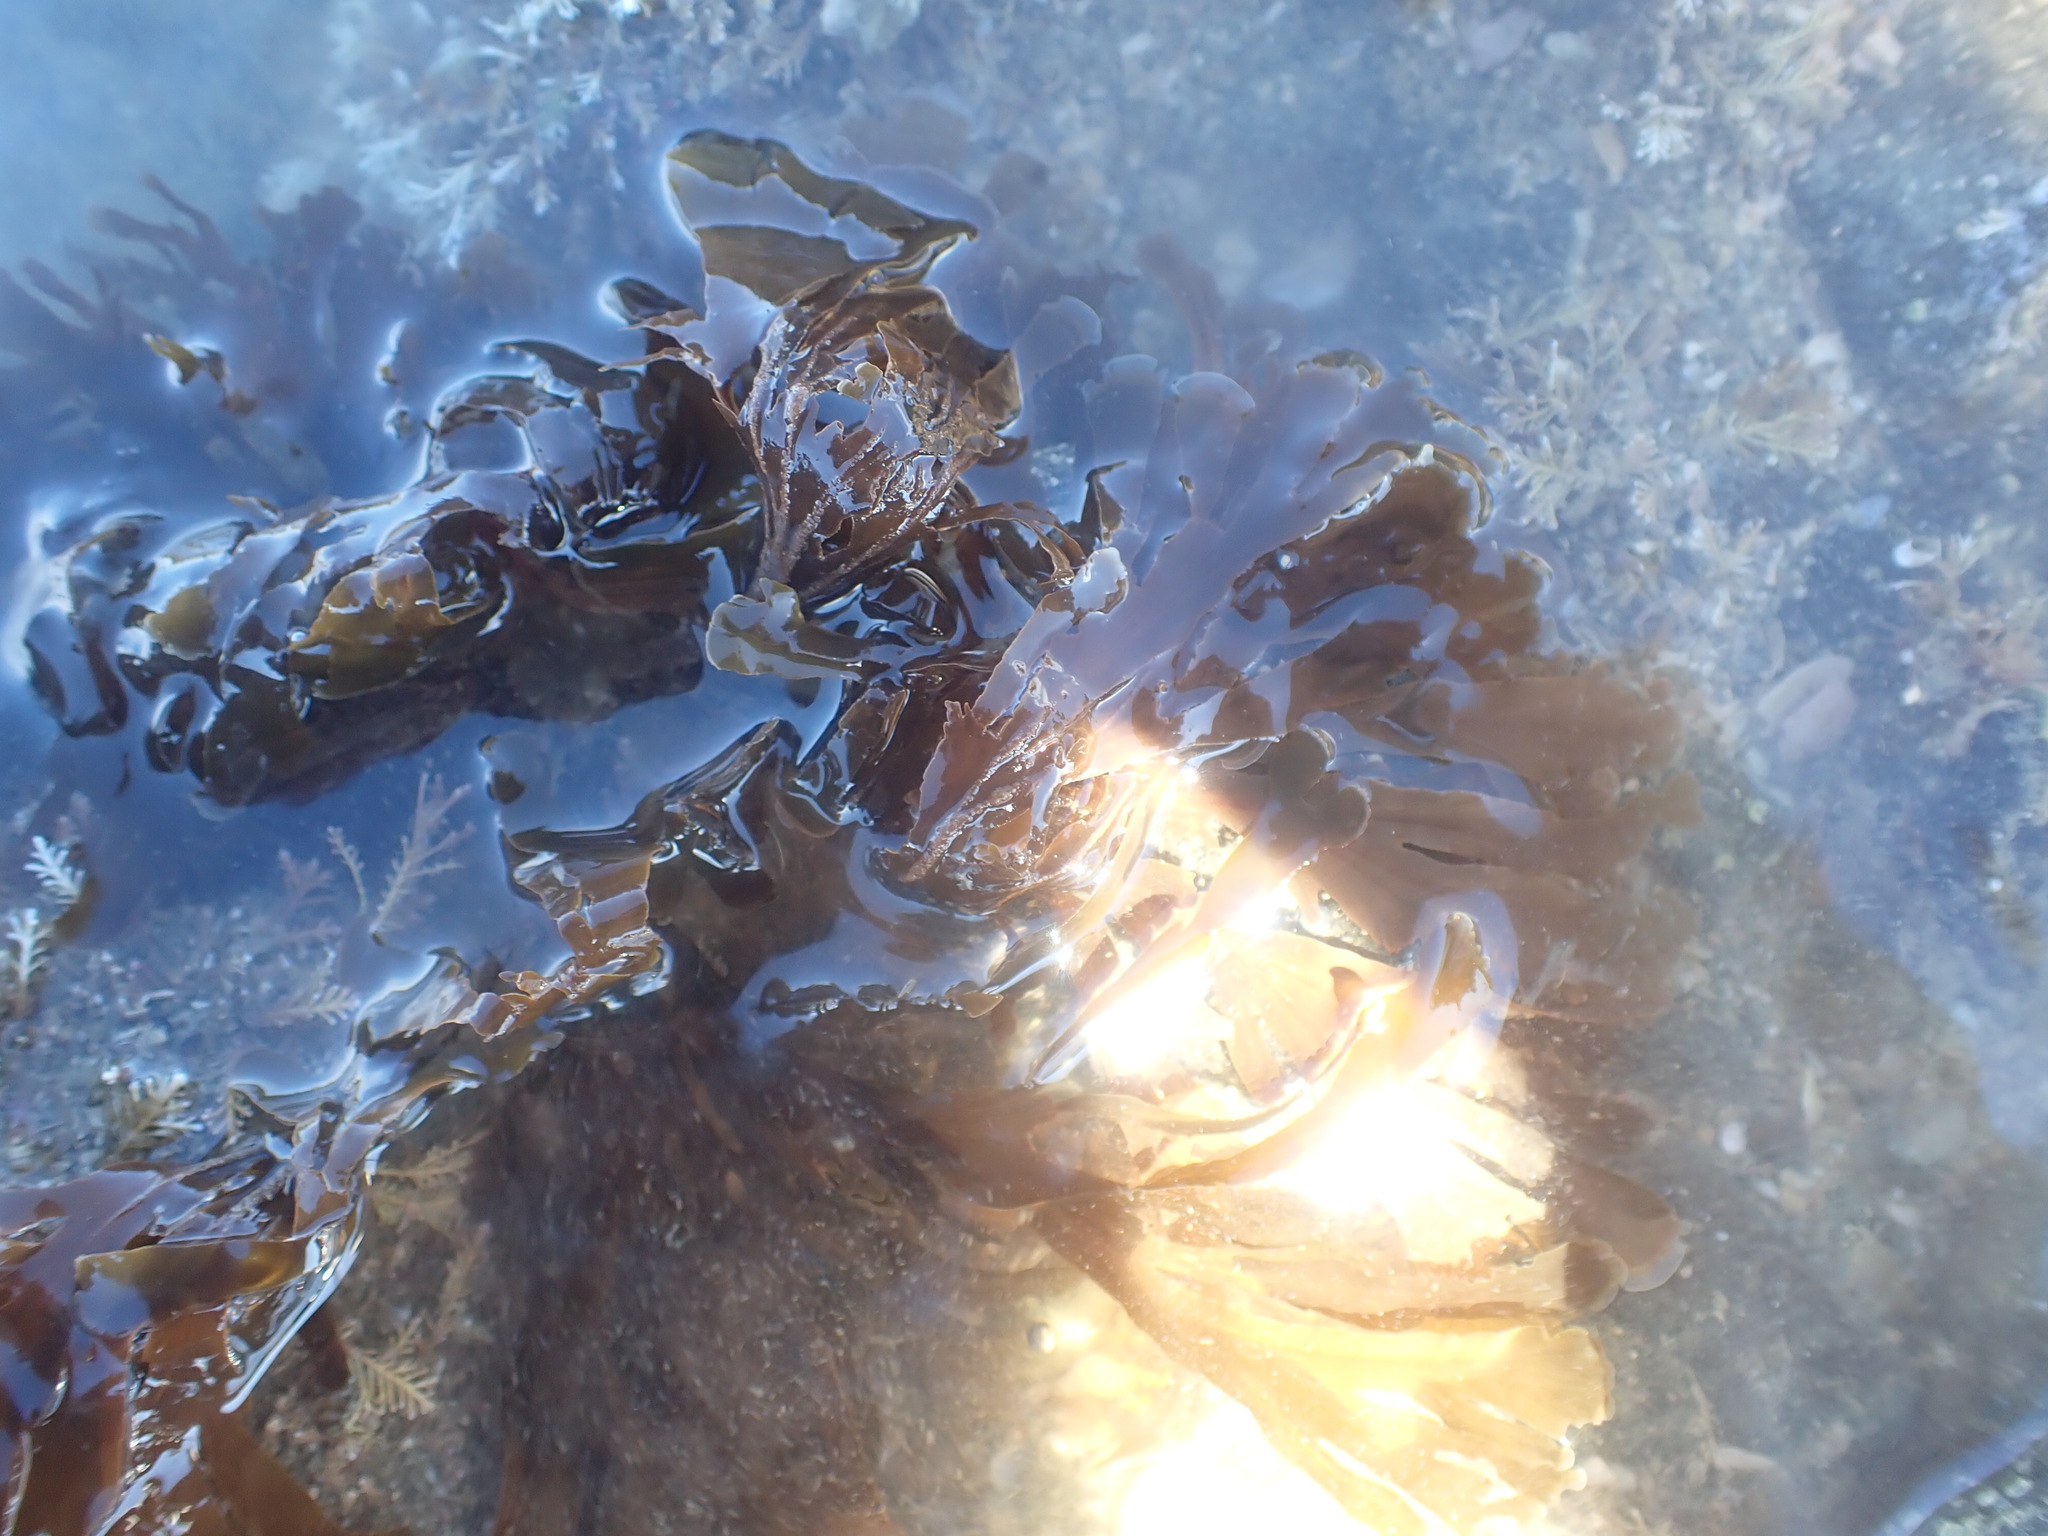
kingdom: Chromista
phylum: Ochrophyta
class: Phaeophyceae
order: Dictyotales
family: Dictyotaceae
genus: Zonaria
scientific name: Zonaria turneriana
